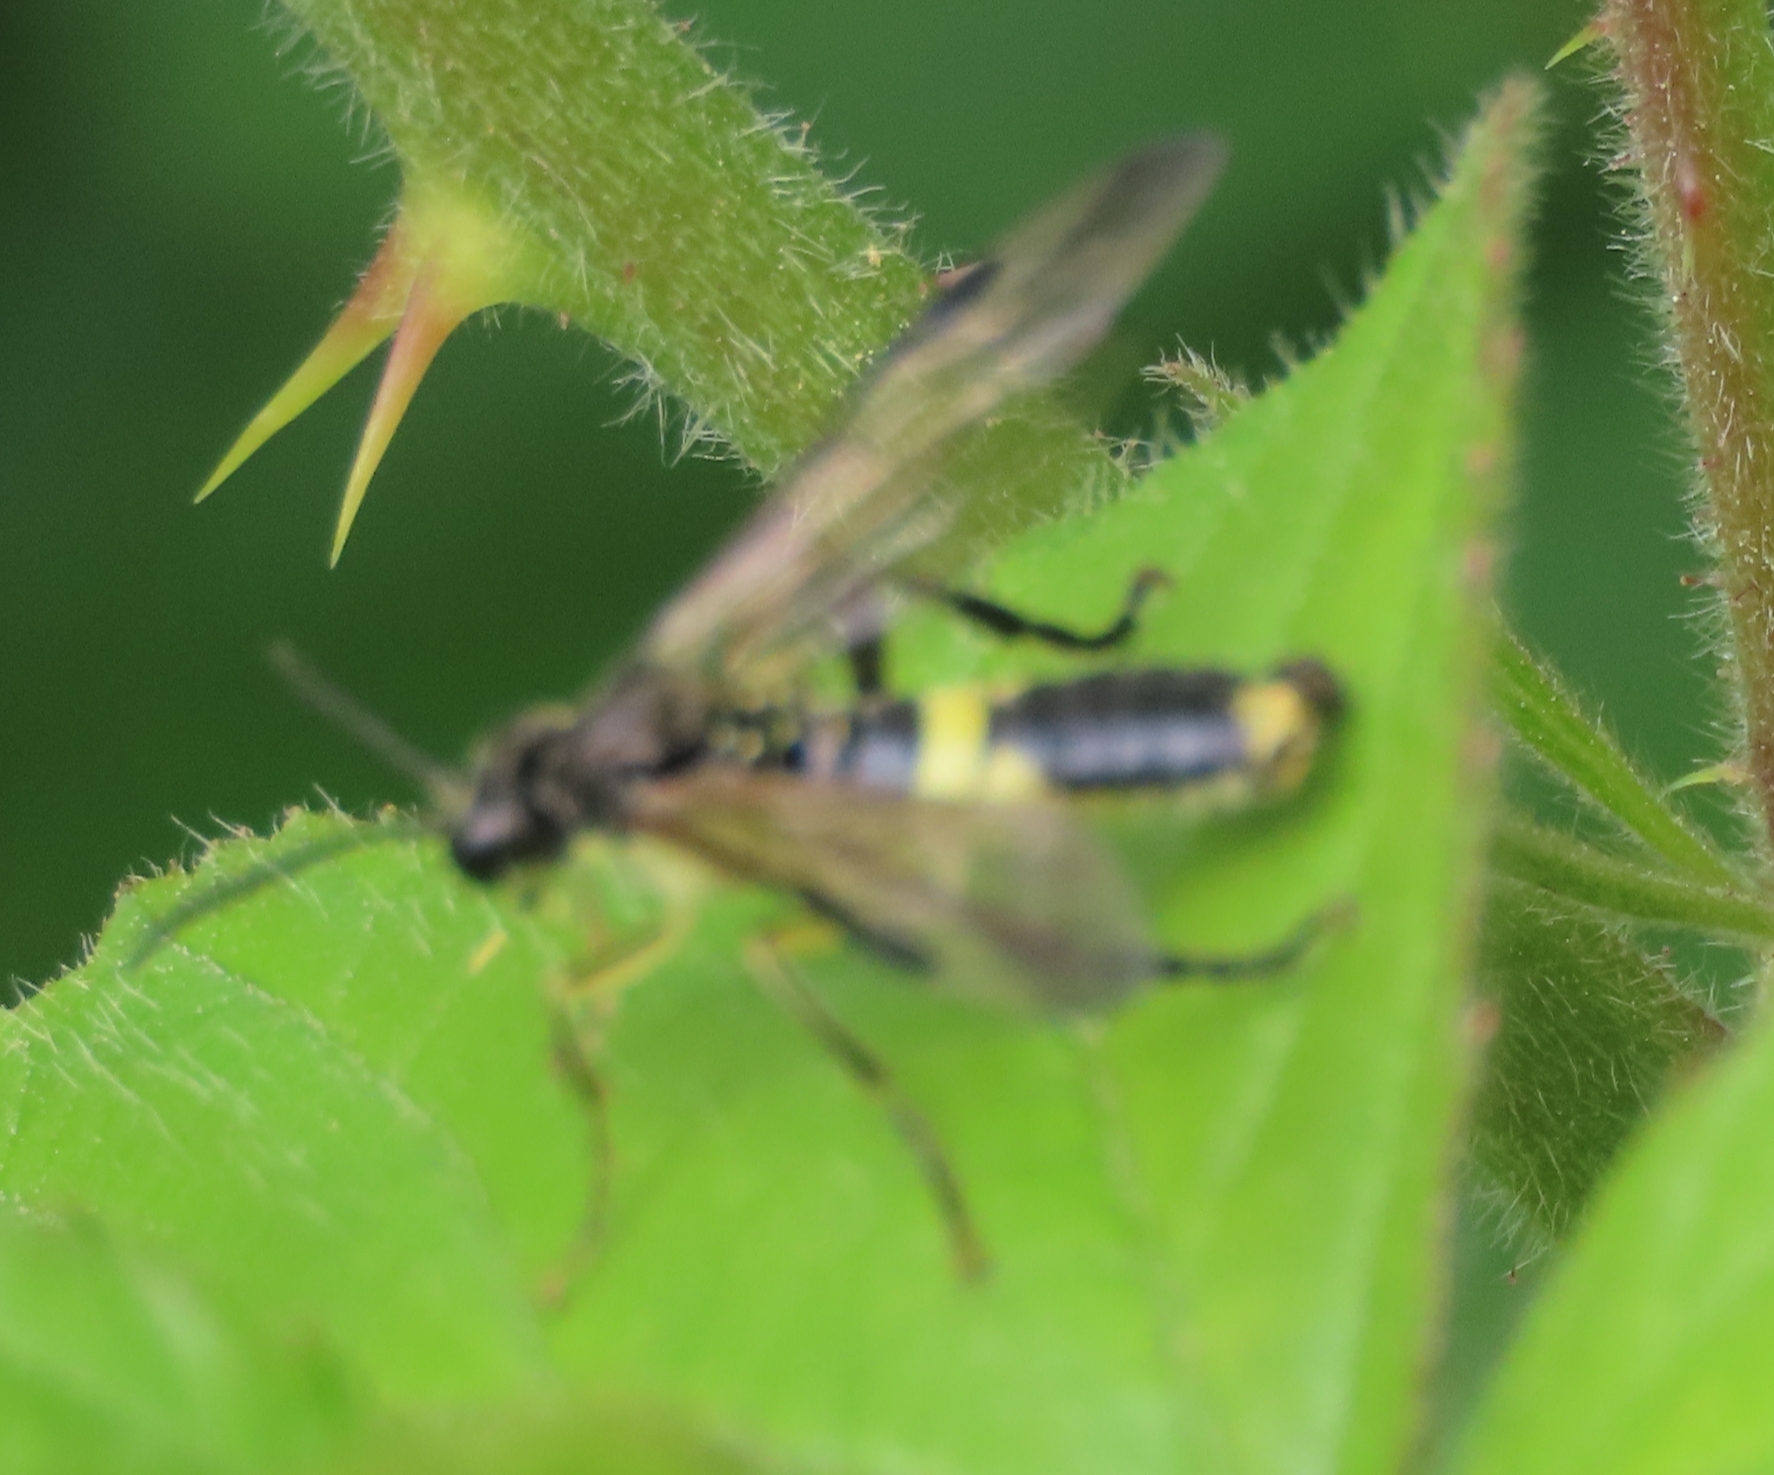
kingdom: Animalia
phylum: Arthropoda
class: Insecta
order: Hymenoptera
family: Tenthredinidae
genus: Tenthredo
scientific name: Tenthredo temula
